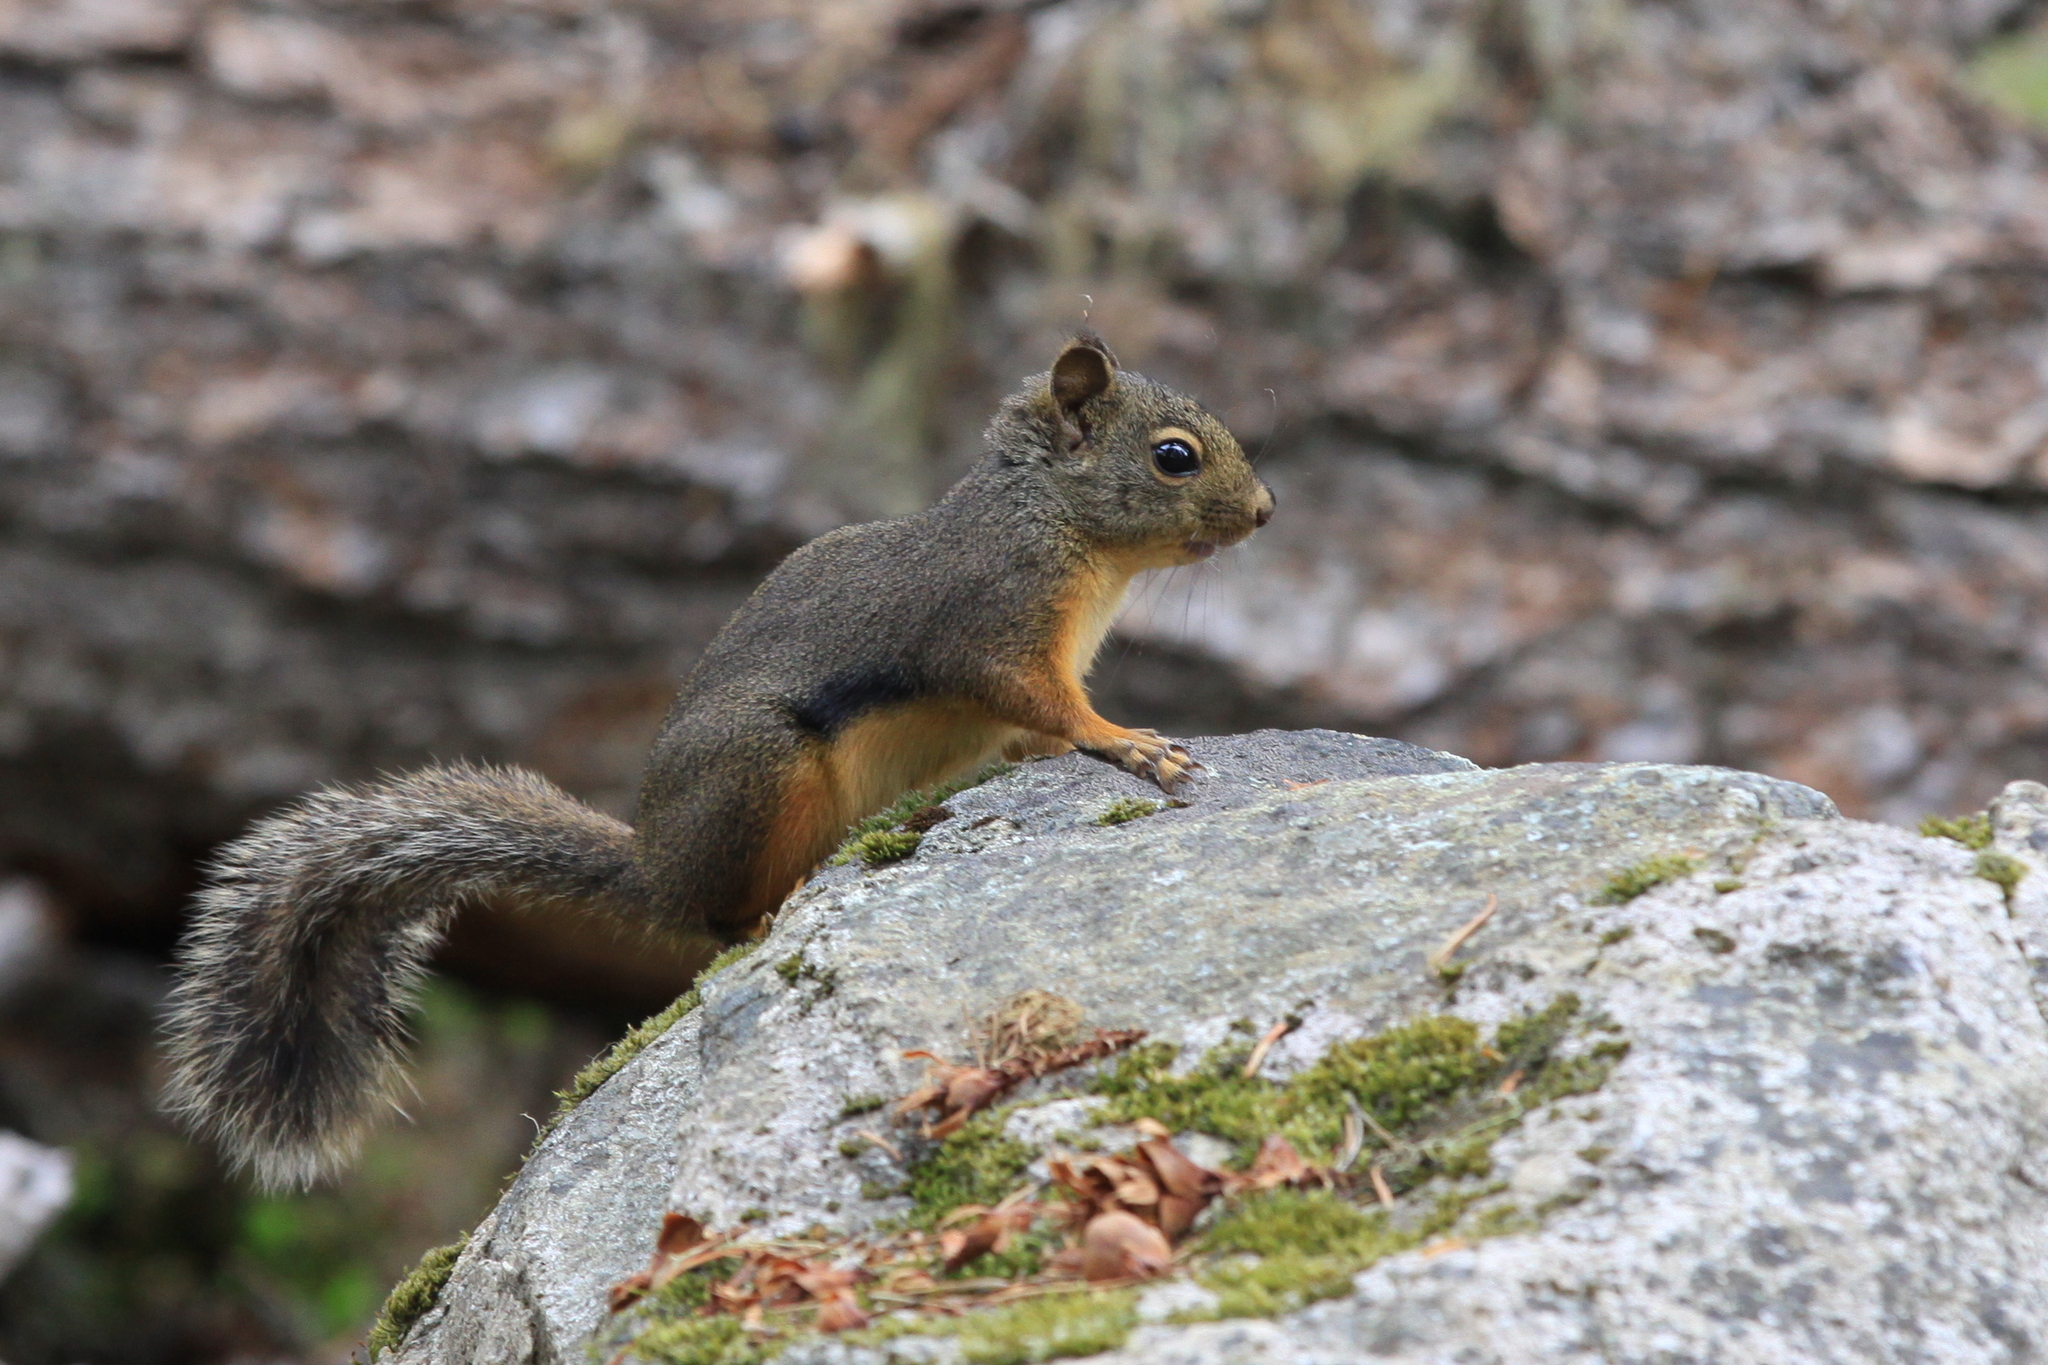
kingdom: Animalia
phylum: Chordata
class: Mammalia
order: Rodentia
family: Sciuridae
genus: Tamiasciurus
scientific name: Tamiasciurus douglasii
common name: Douglas's squirrel
